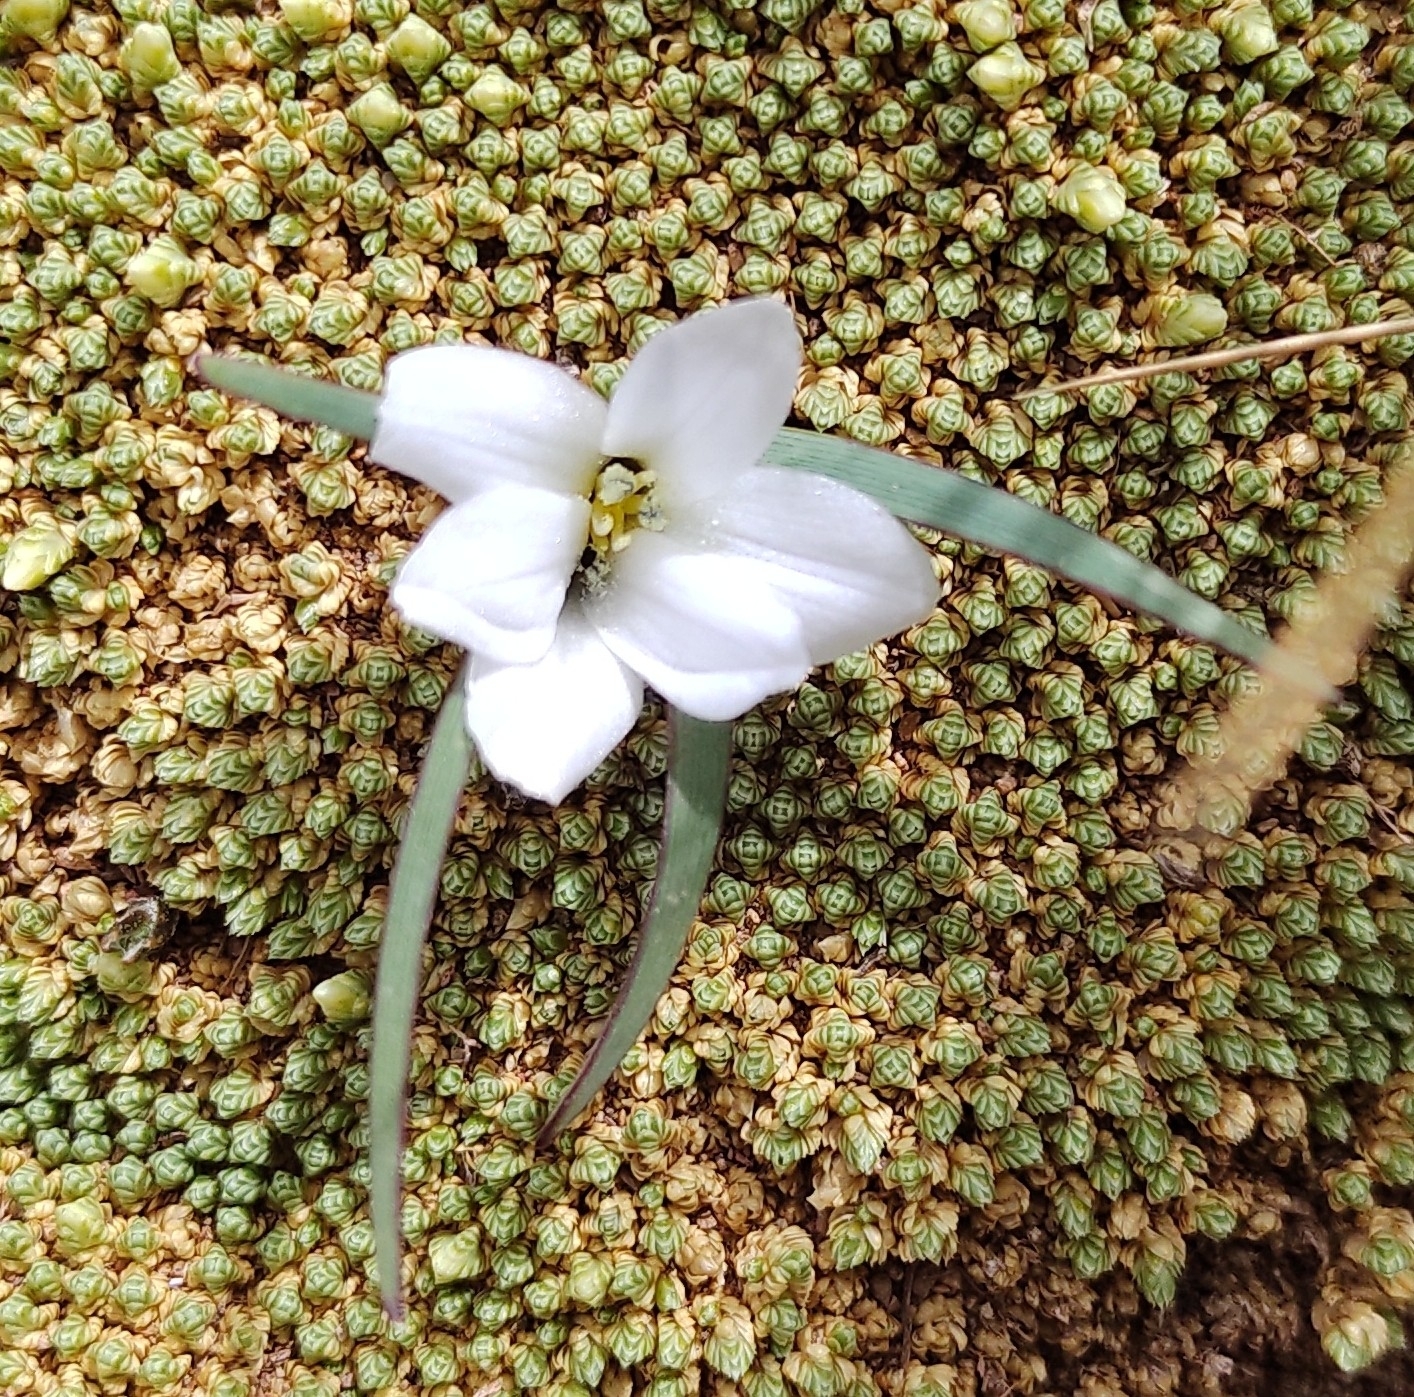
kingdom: Plantae
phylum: Tracheophyta
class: Liliopsida
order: Asparagales
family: Iridaceae
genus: Olsynium
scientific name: Olsynium acaule
